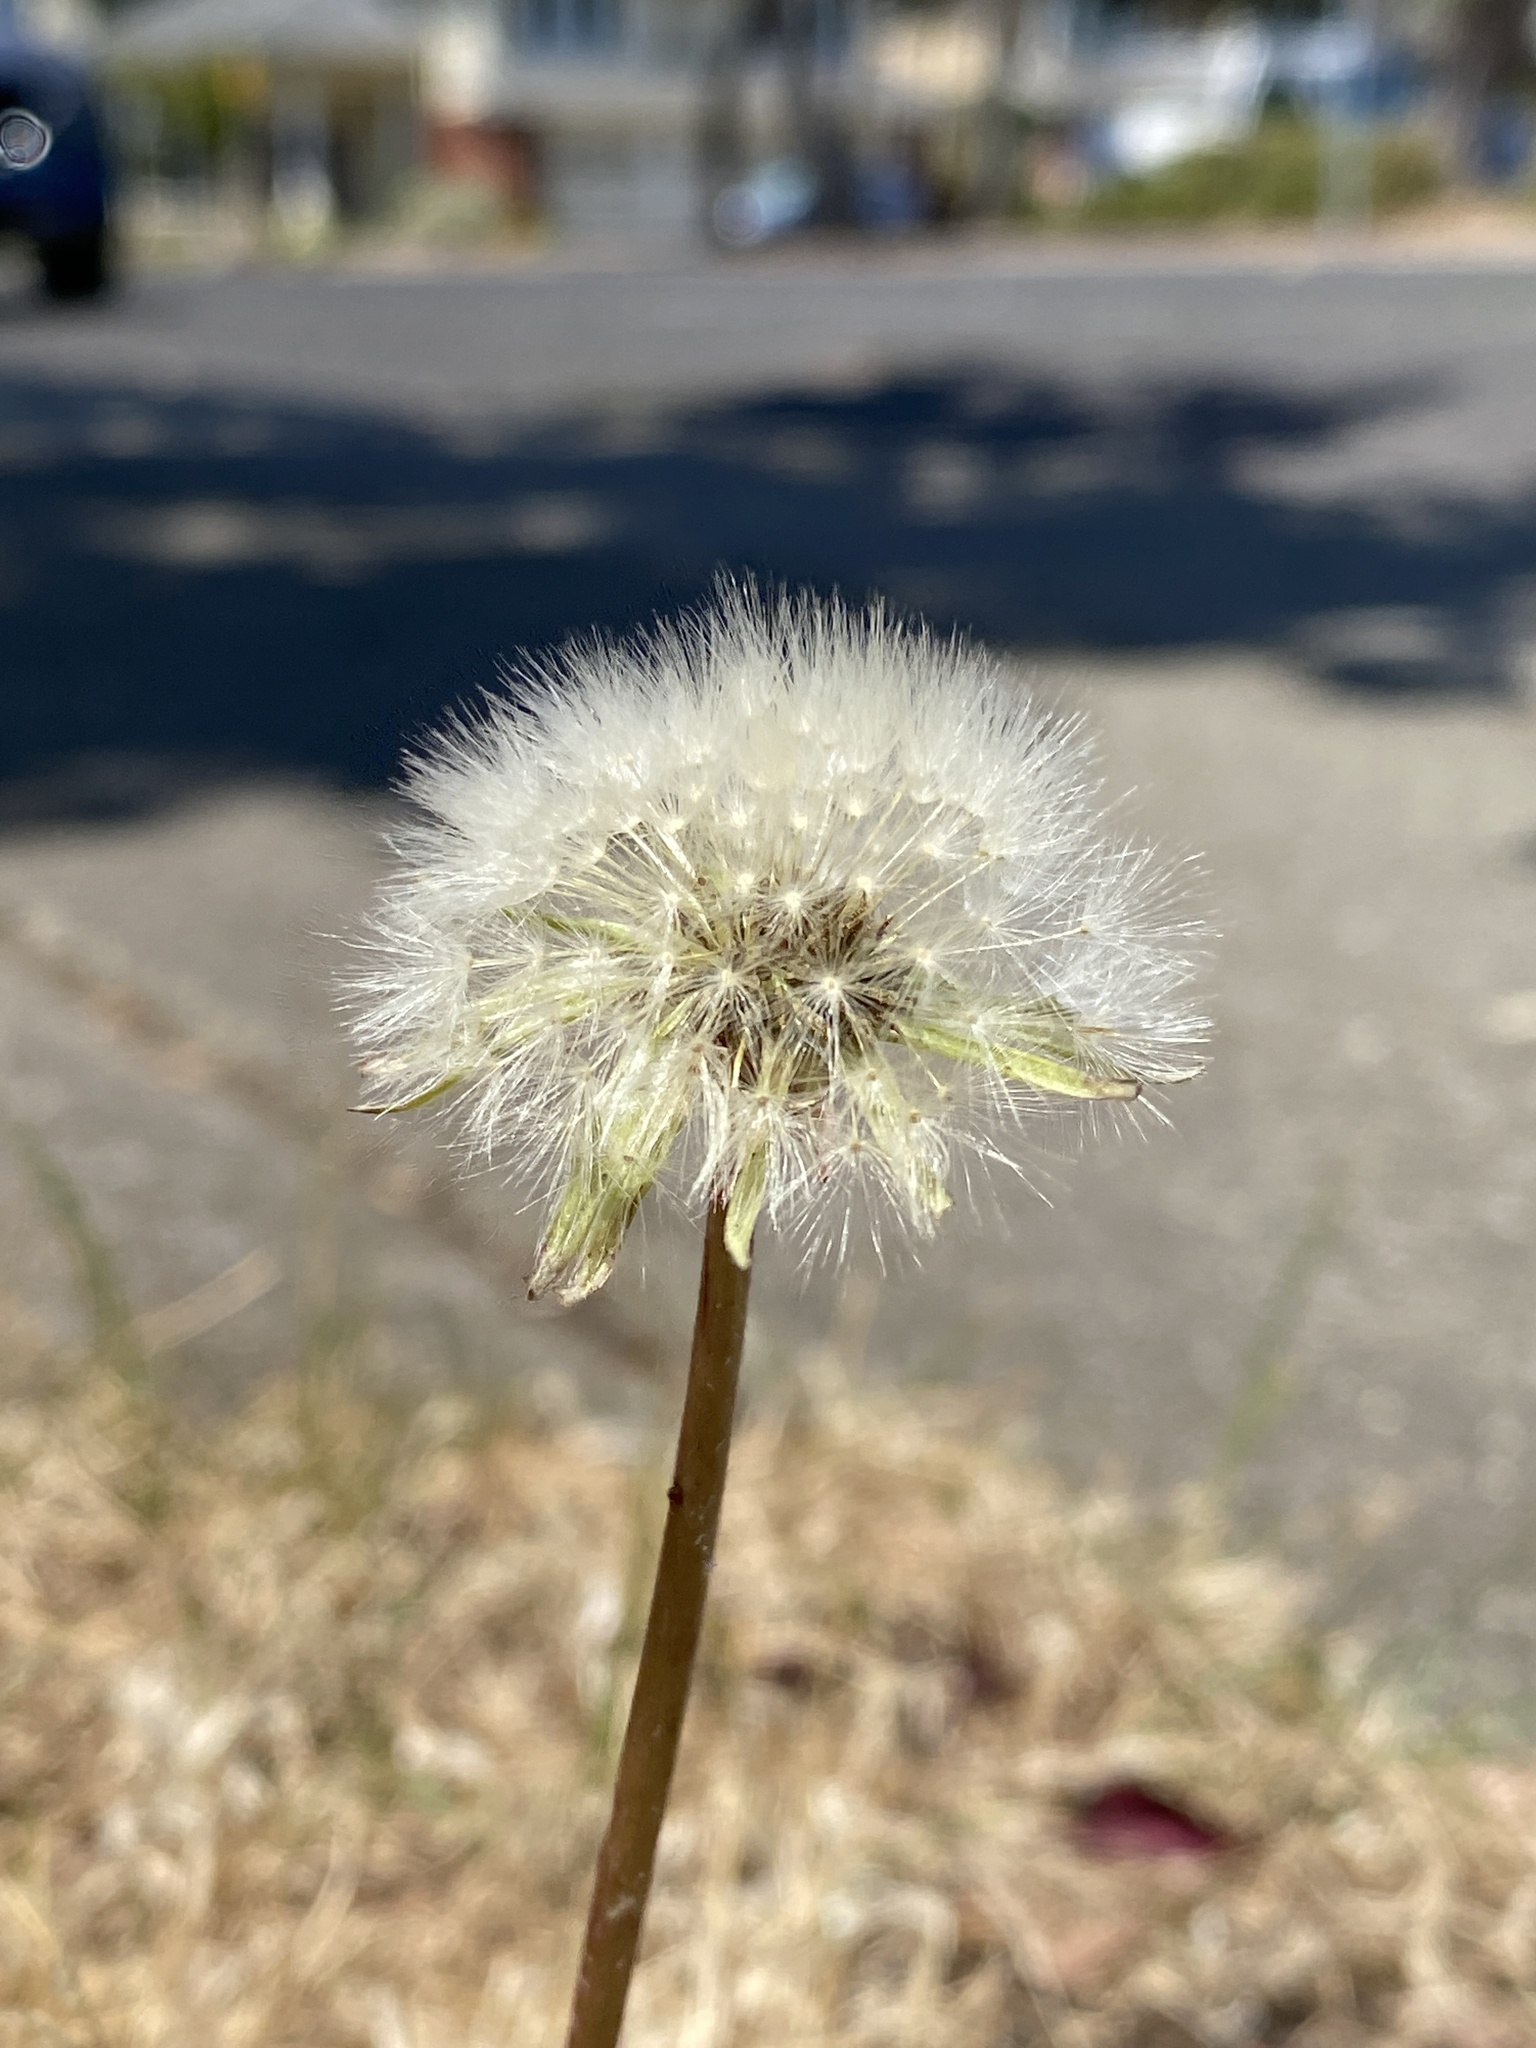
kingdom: Plantae
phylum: Tracheophyta
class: Magnoliopsida
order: Asterales
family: Asteraceae
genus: Taraxacum
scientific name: Taraxacum officinale
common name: Common dandelion
